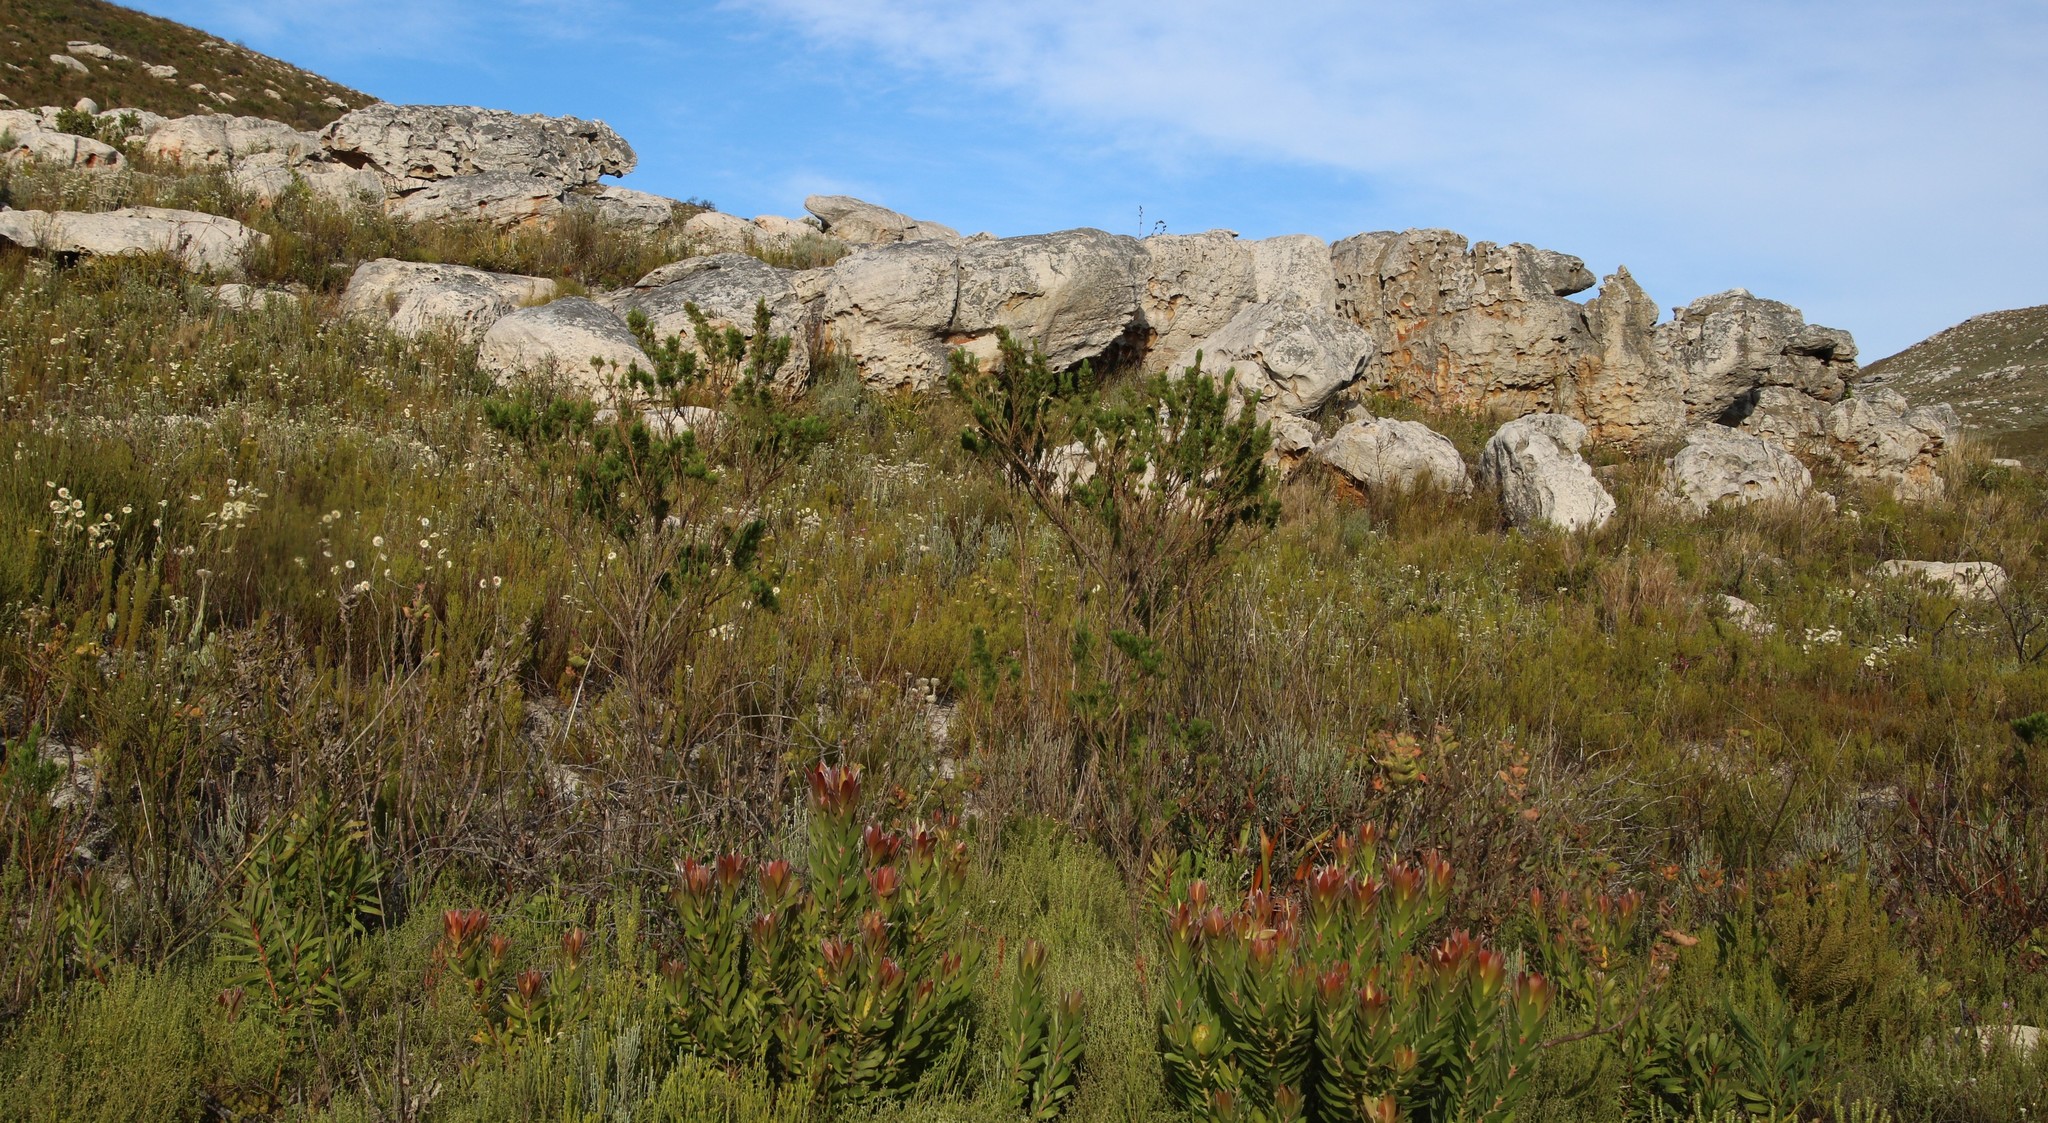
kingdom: Plantae
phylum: Tracheophyta
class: Magnoliopsida
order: Fabales
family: Fabaceae
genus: Psoralea
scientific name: Psoralea pinnata
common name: African scurfpea
